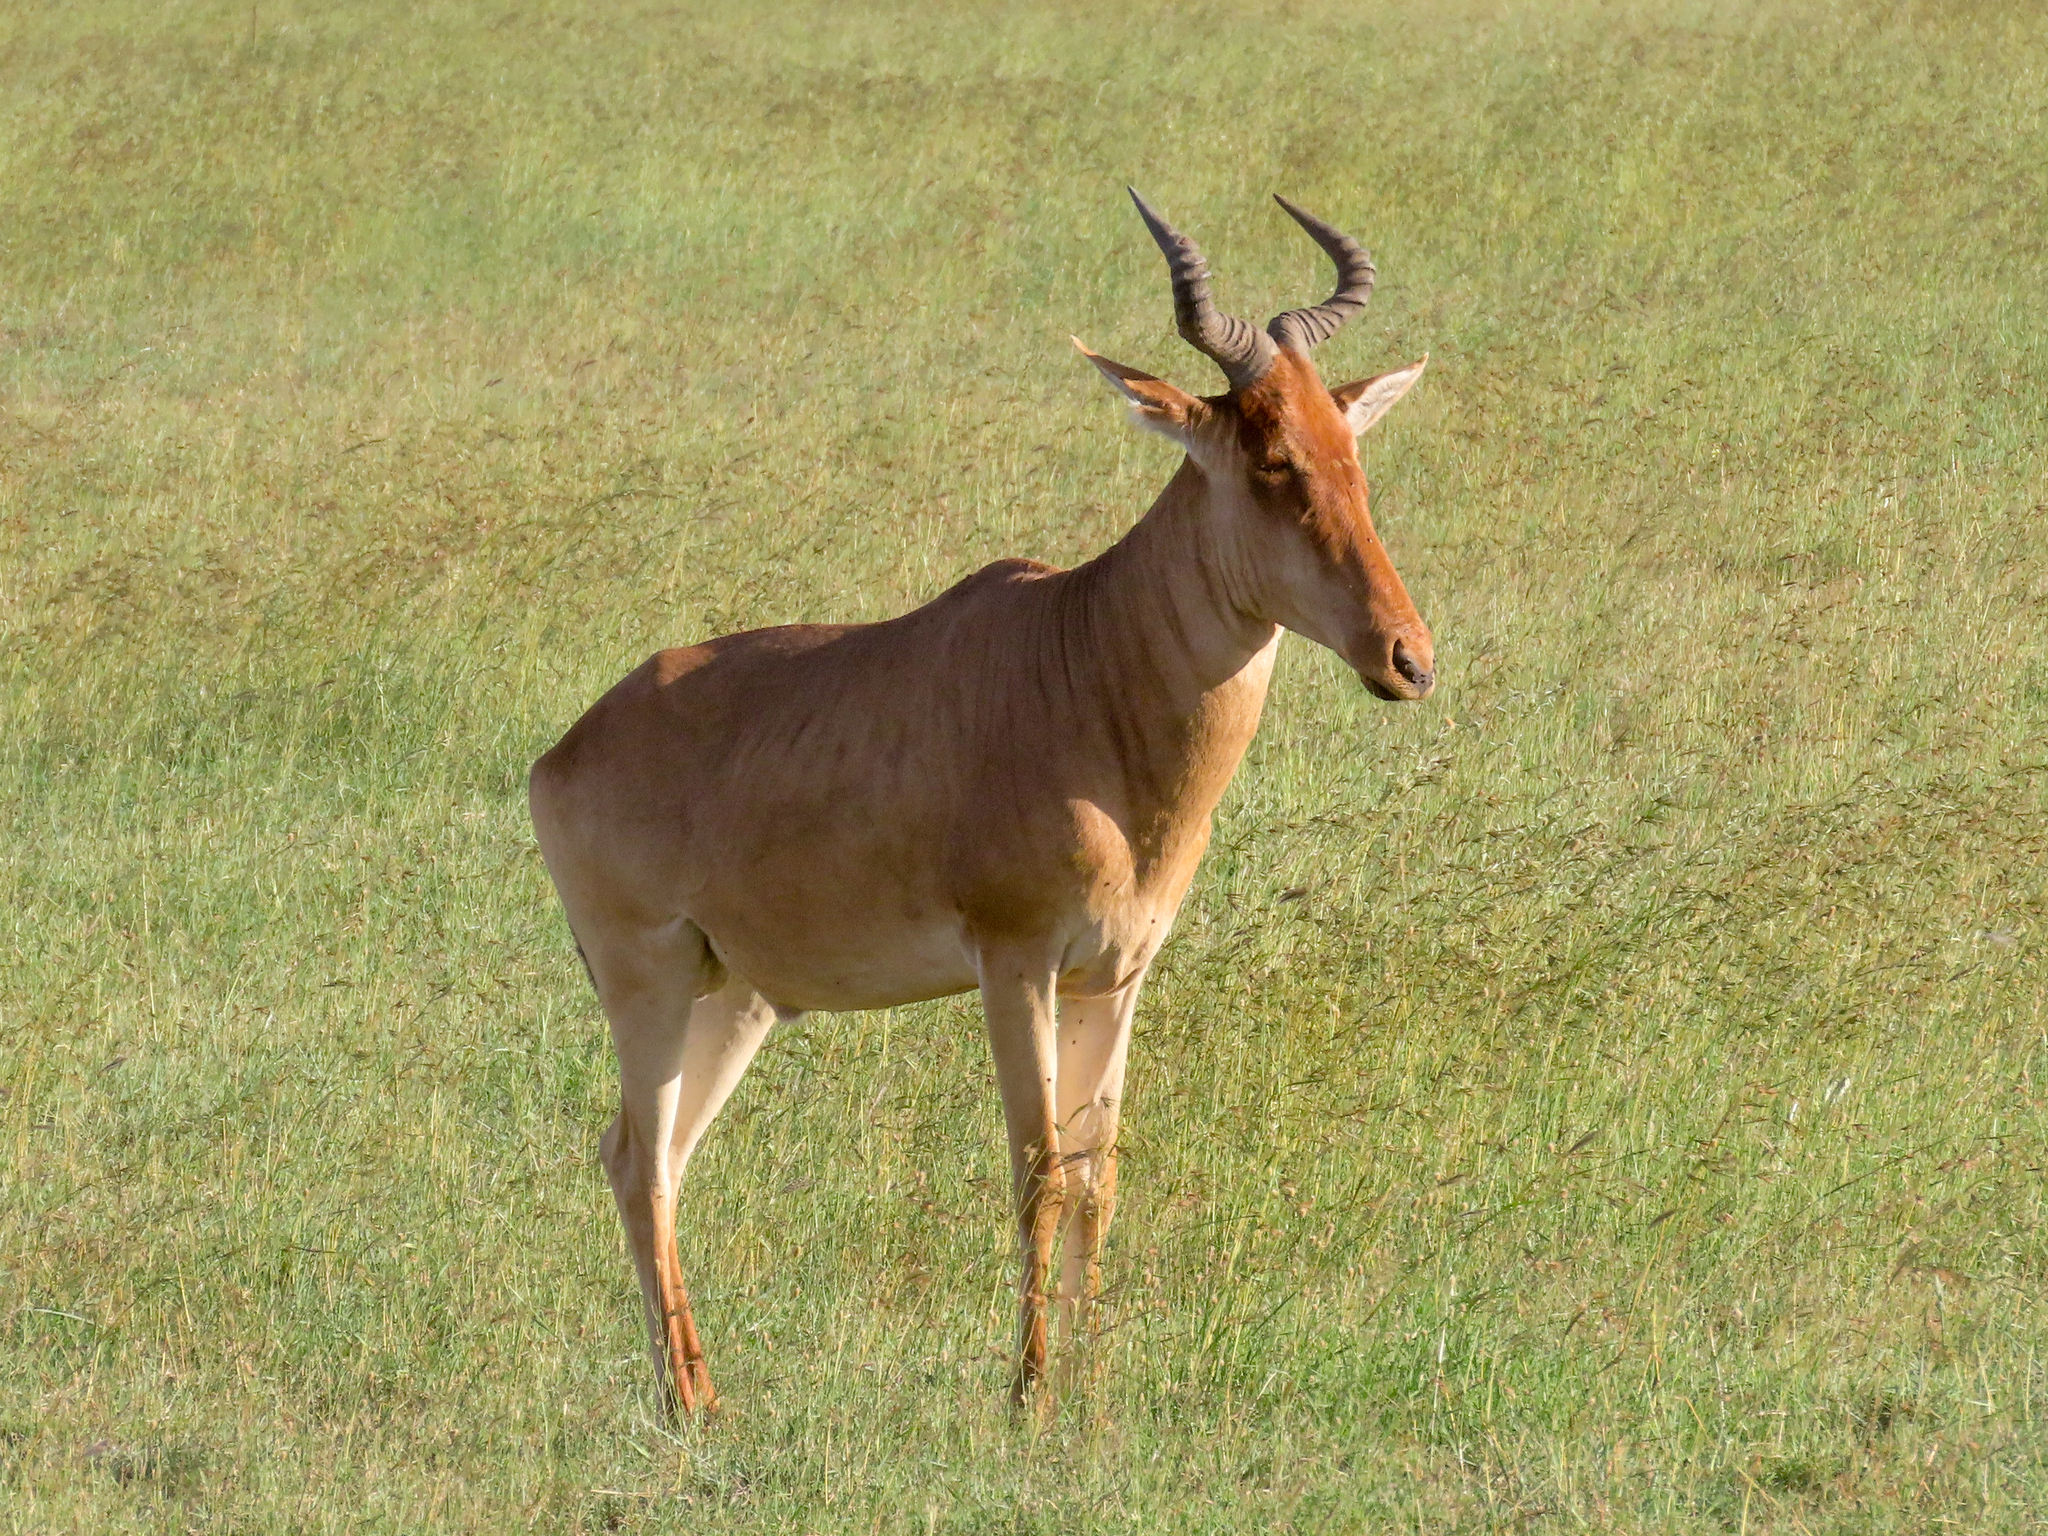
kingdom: Animalia
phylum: Chordata
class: Mammalia
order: Artiodactyla
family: Bovidae
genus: Alcelaphus
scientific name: Alcelaphus buselaphus
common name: Hartebeest
